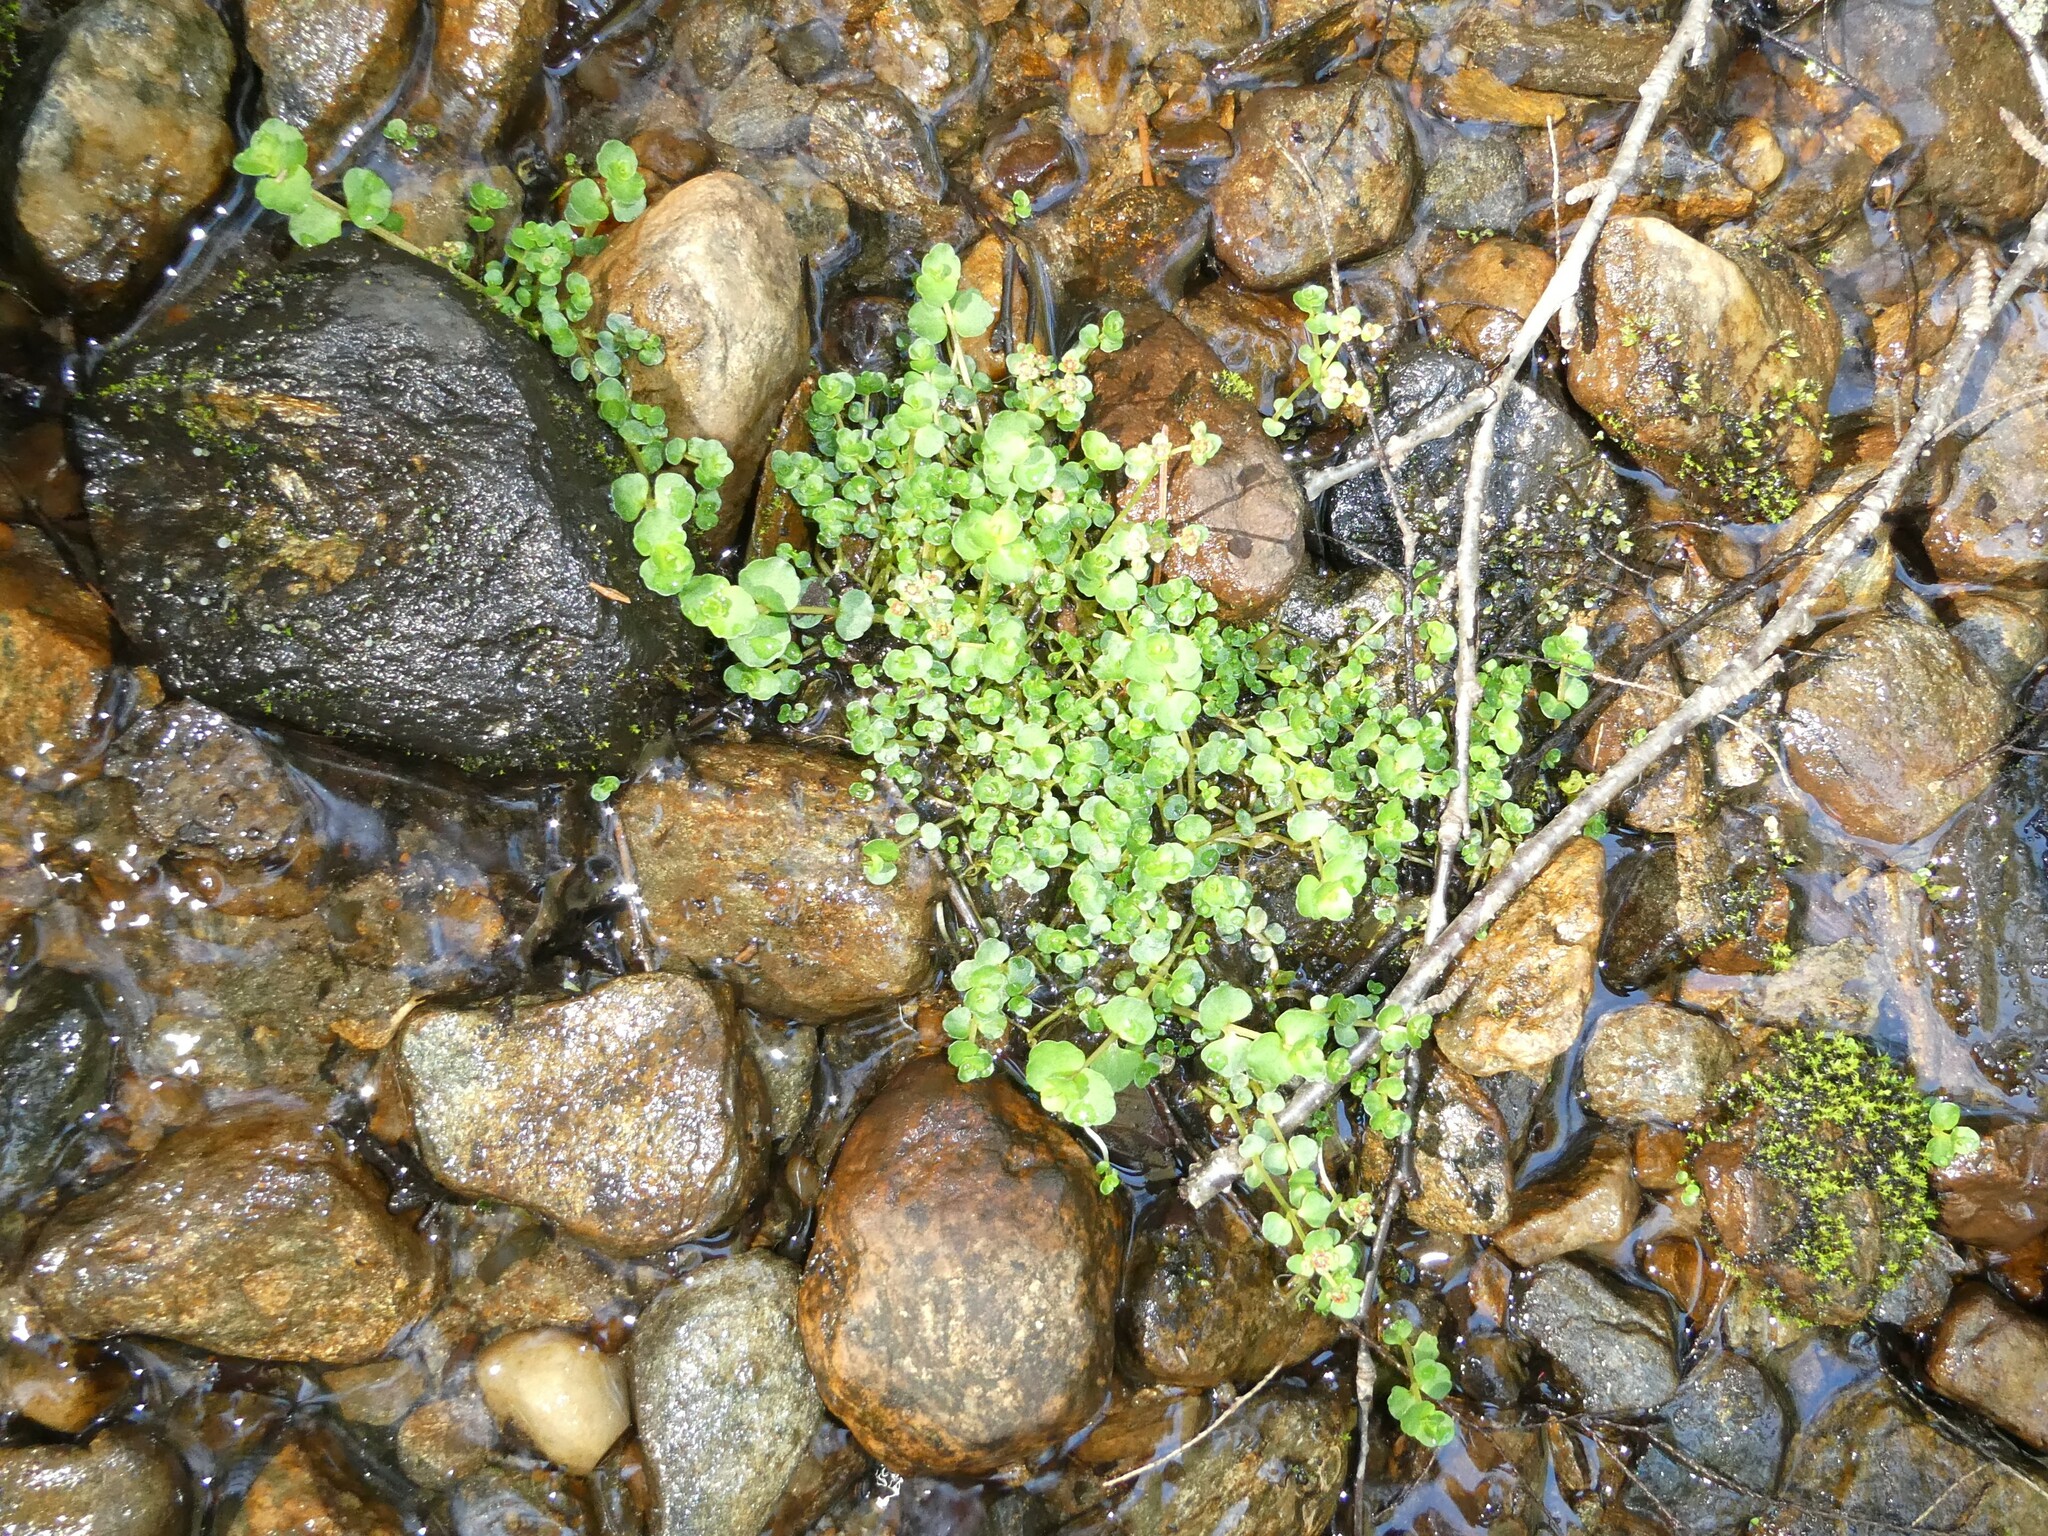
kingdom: Plantae
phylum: Tracheophyta
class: Magnoliopsida
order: Saxifragales
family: Saxifragaceae
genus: Chrysosplenium
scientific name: Chrysosplenium americanum
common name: American golden-saxifrage
